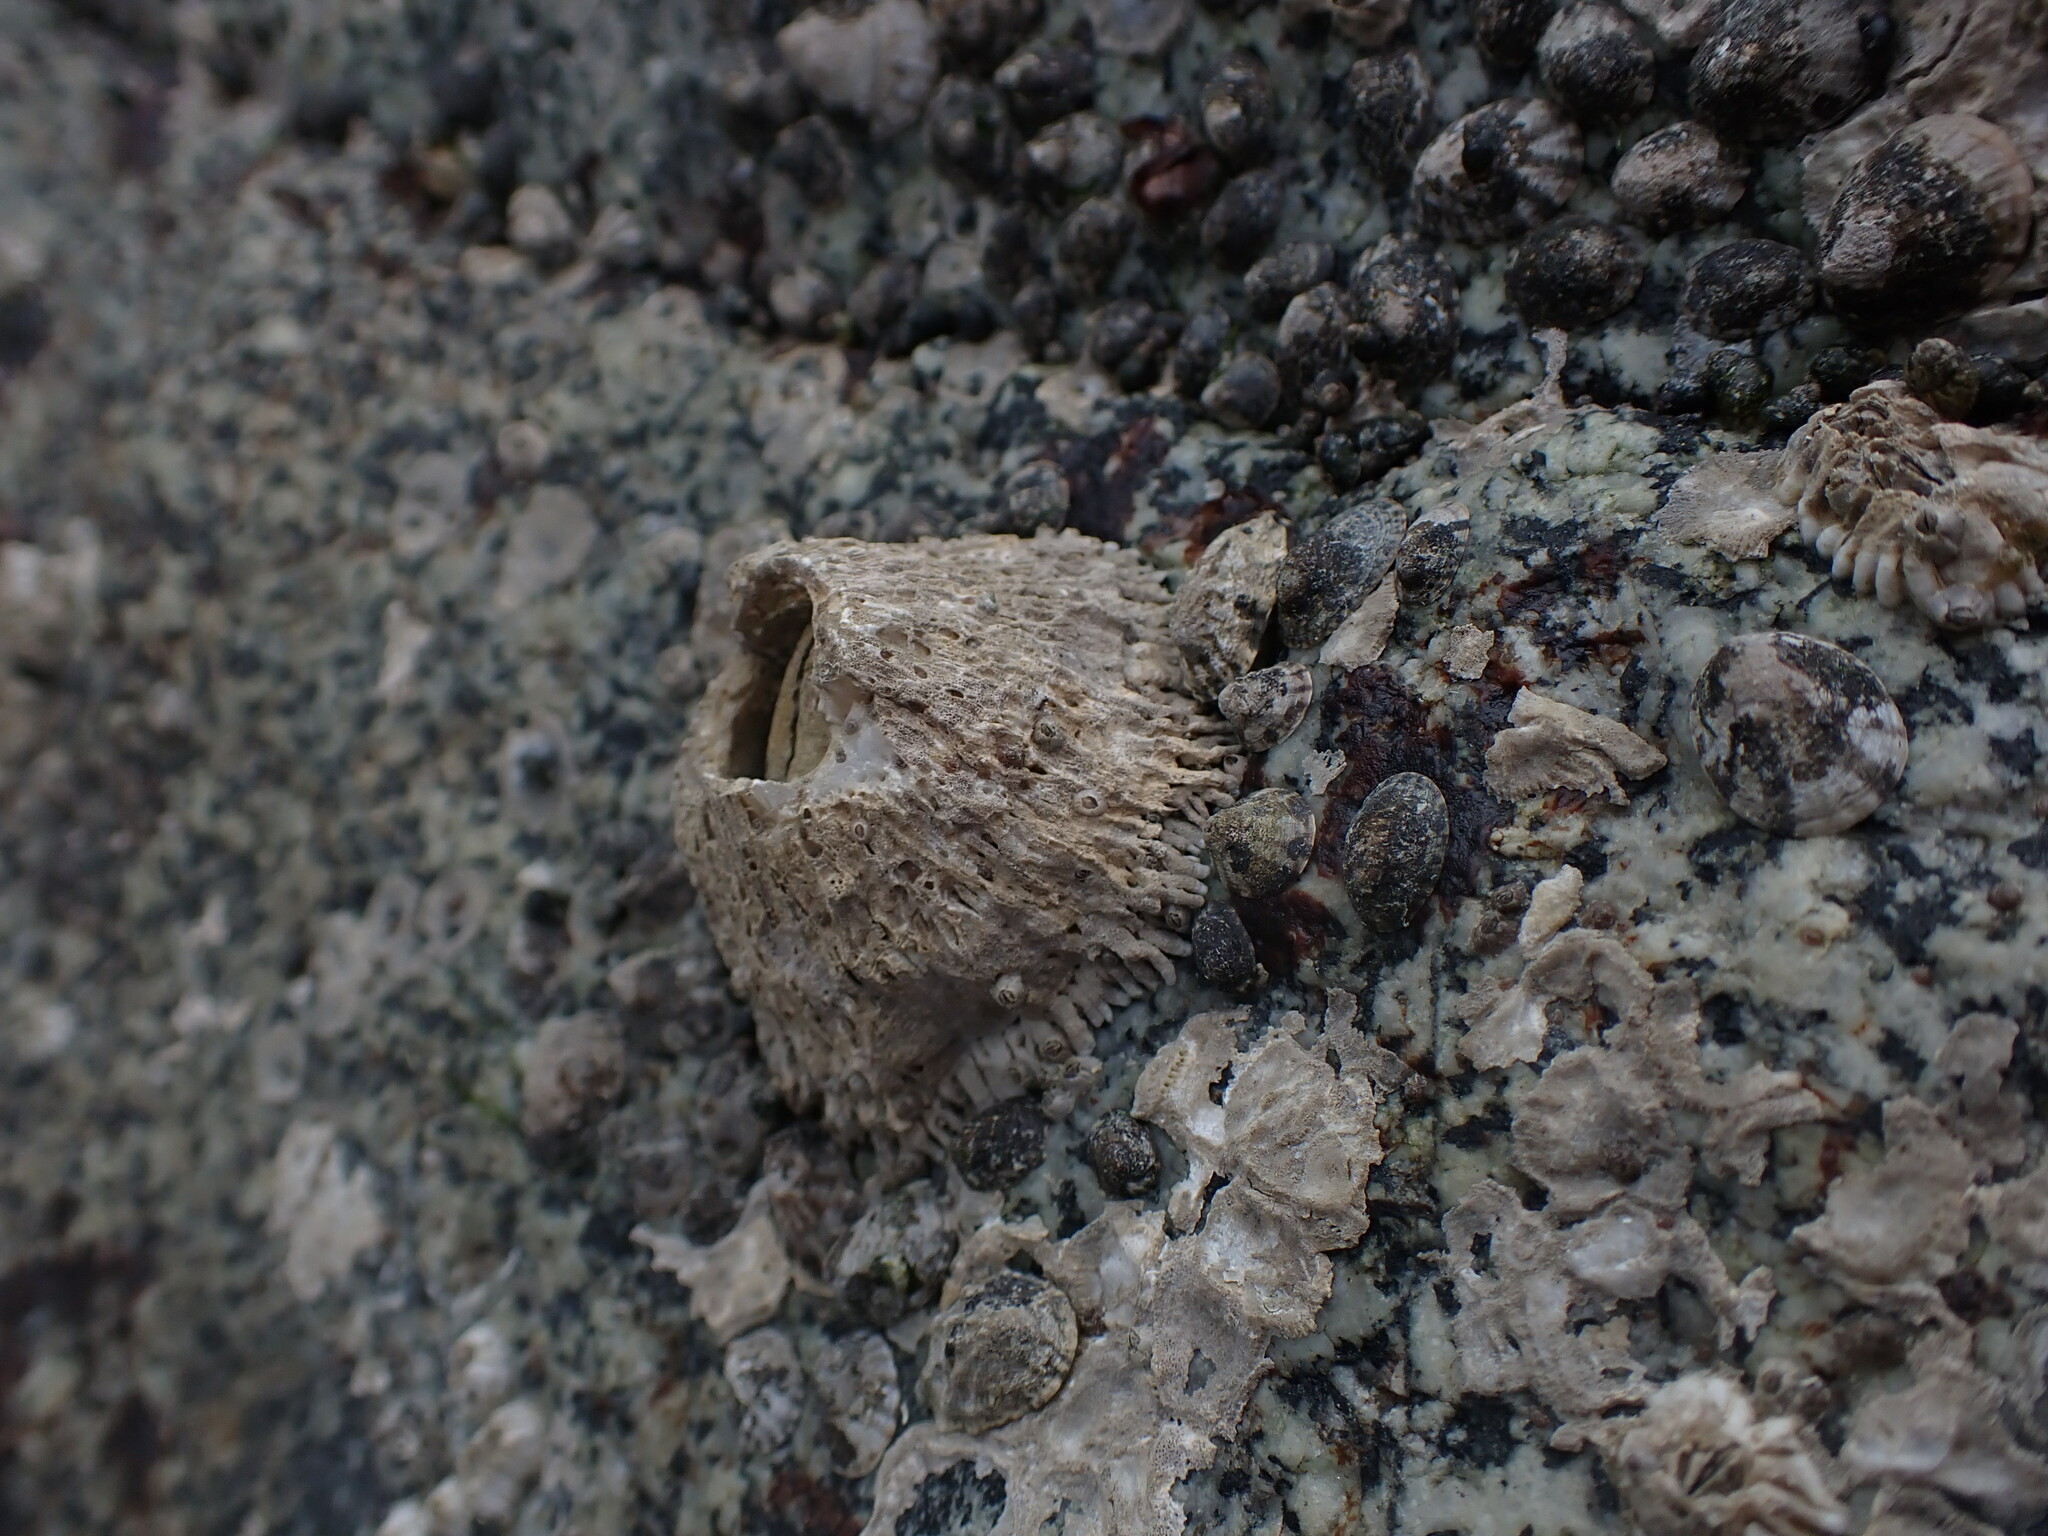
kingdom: Animalia
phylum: Arthropoda
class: Maxillopoda
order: Sessilia
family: Archaeobalanidae
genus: Semibalanus
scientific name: Semibalanus cariosus
